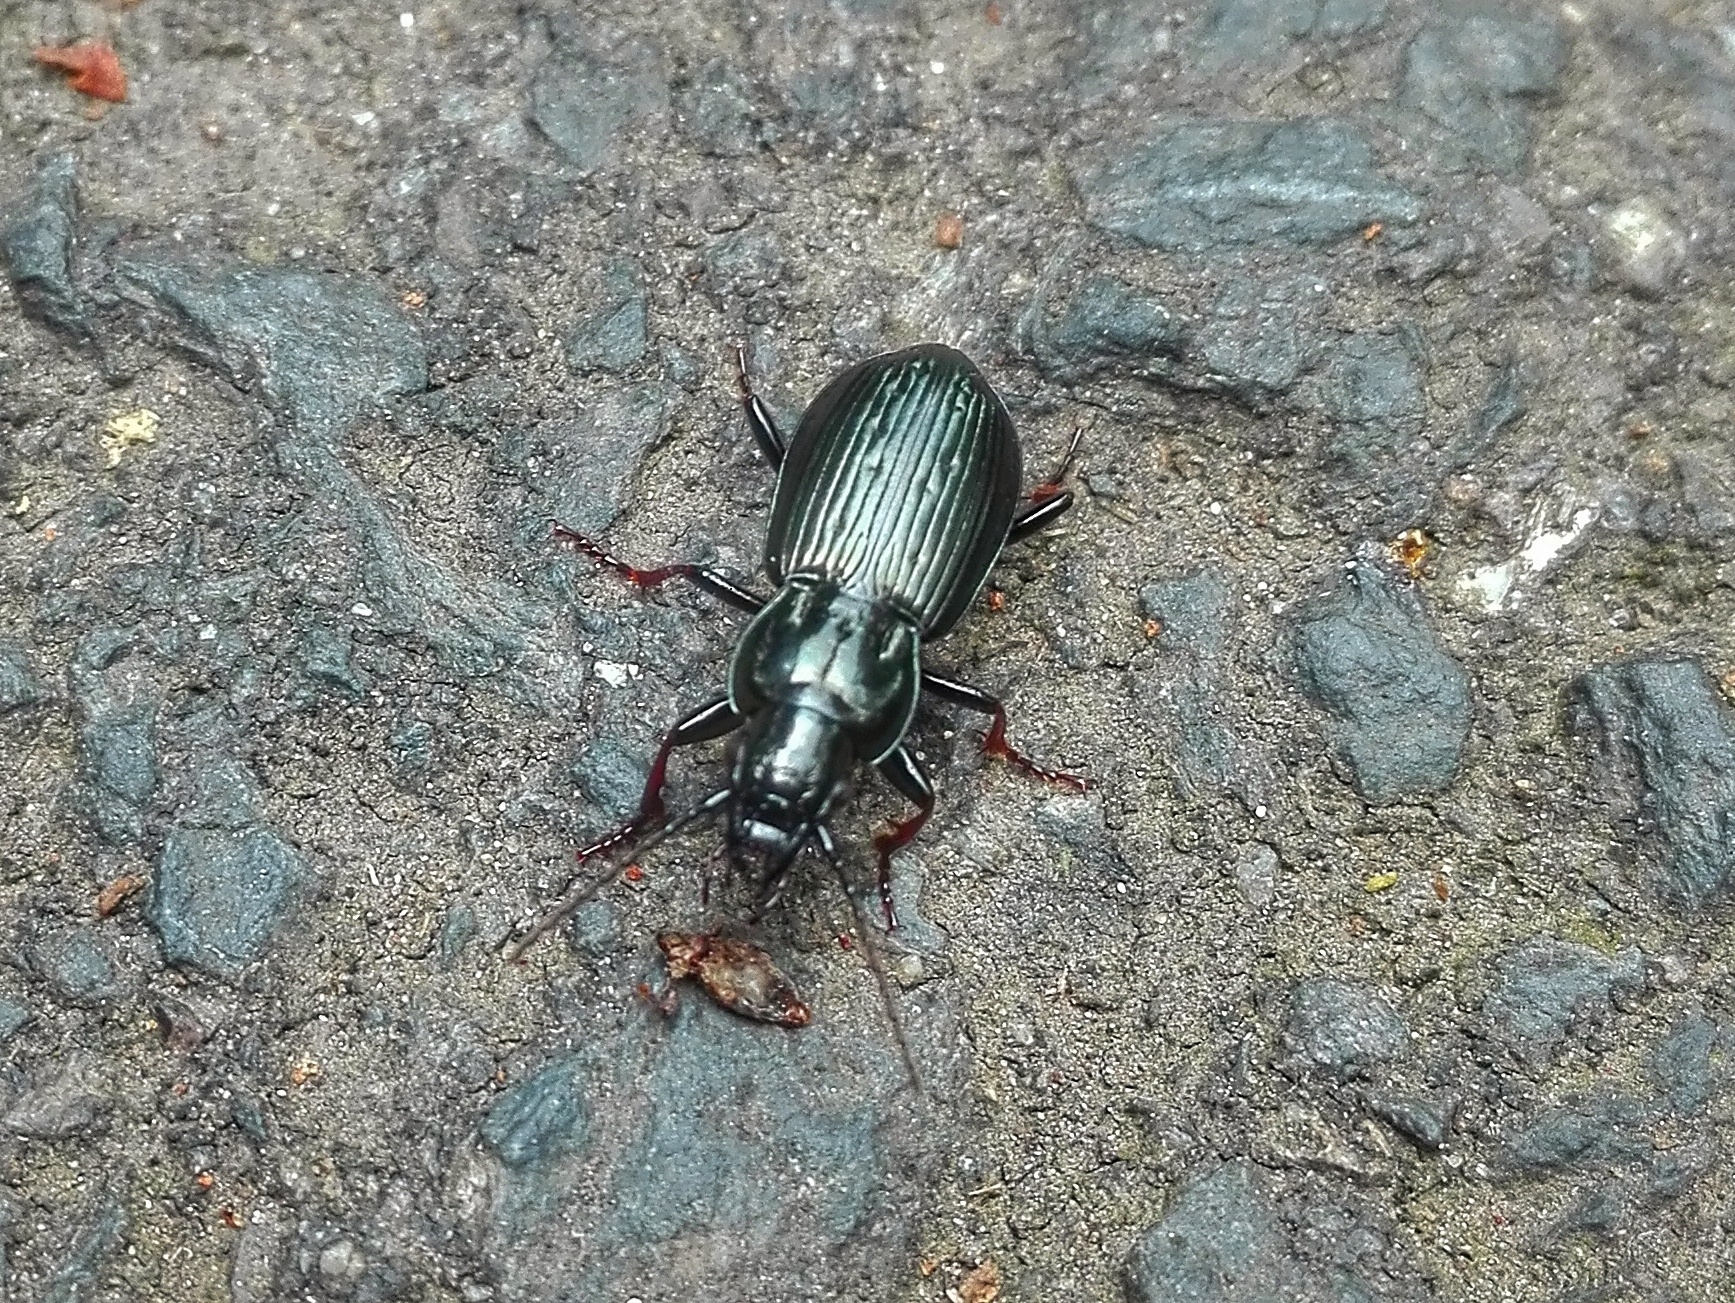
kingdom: Animalia
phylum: Arthropoda
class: Insecta
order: Coleoptera
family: Carabidae
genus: Pterostichus
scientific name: Pterostichus oblongopunctatus
